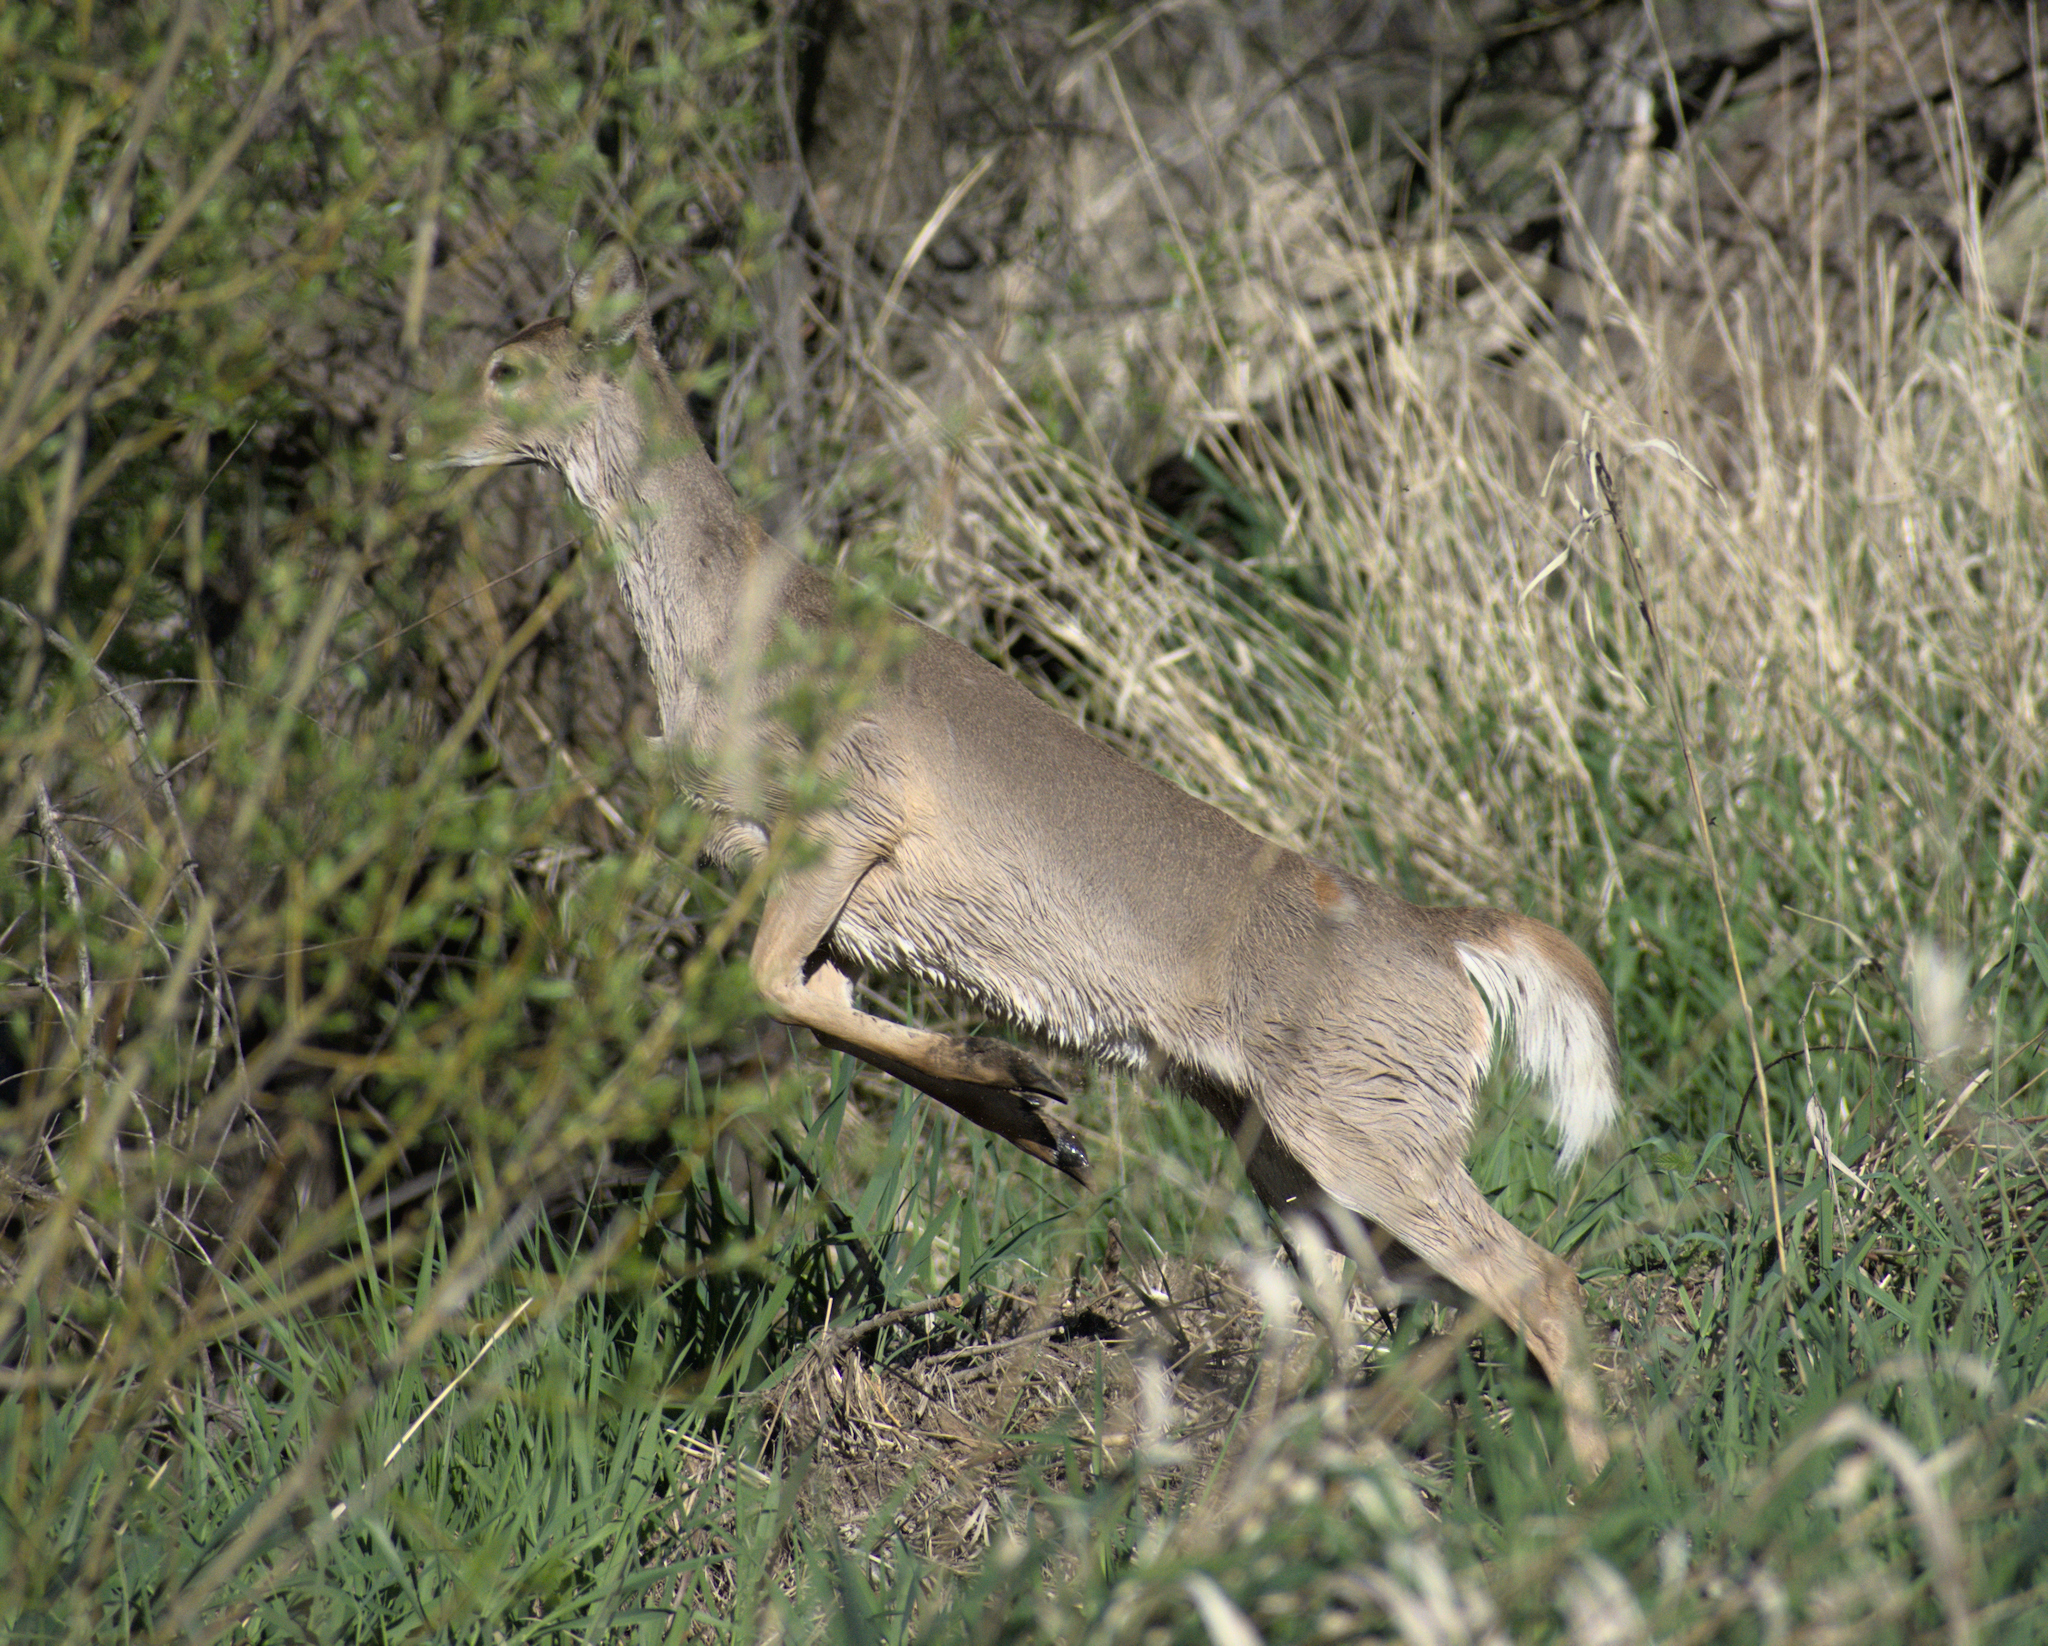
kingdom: Animalia
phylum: Chordata
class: Mammalia
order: Artiodactyla
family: Cervidae
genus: Odocoileus
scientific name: Odocoileus virginianus
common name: White-tailed deer
